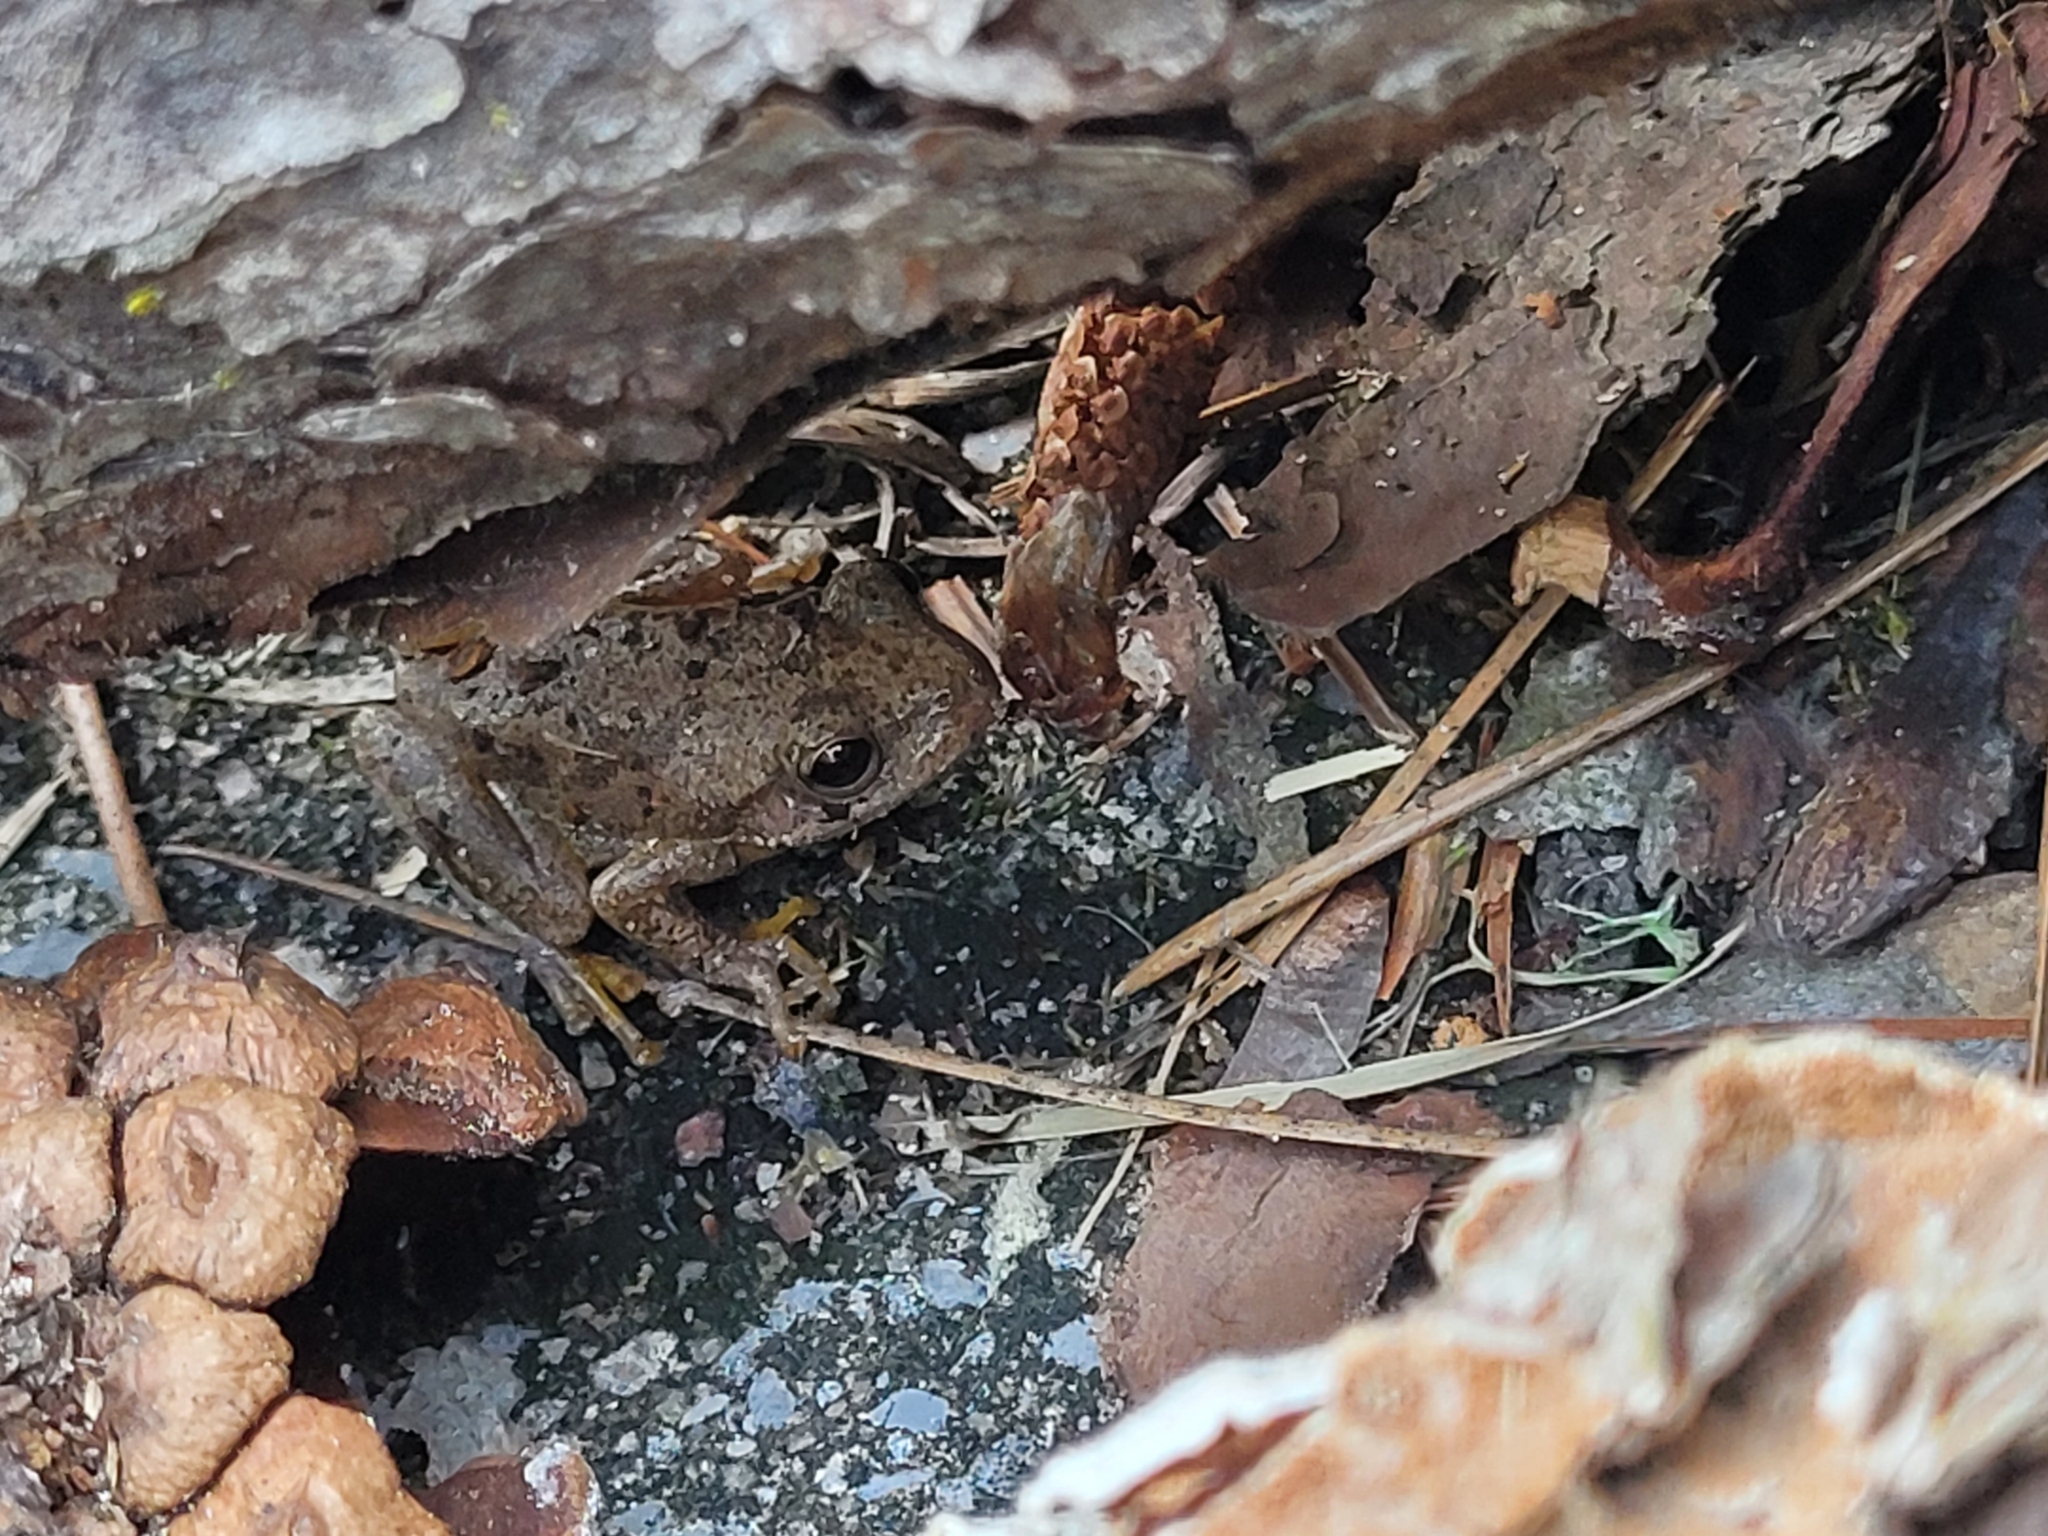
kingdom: Animalia
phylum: Chordata
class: Amphibia
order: Anura
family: Hylidae
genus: Dryophytes
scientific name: Dryophytes squirellus
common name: Squirrel treefrog
